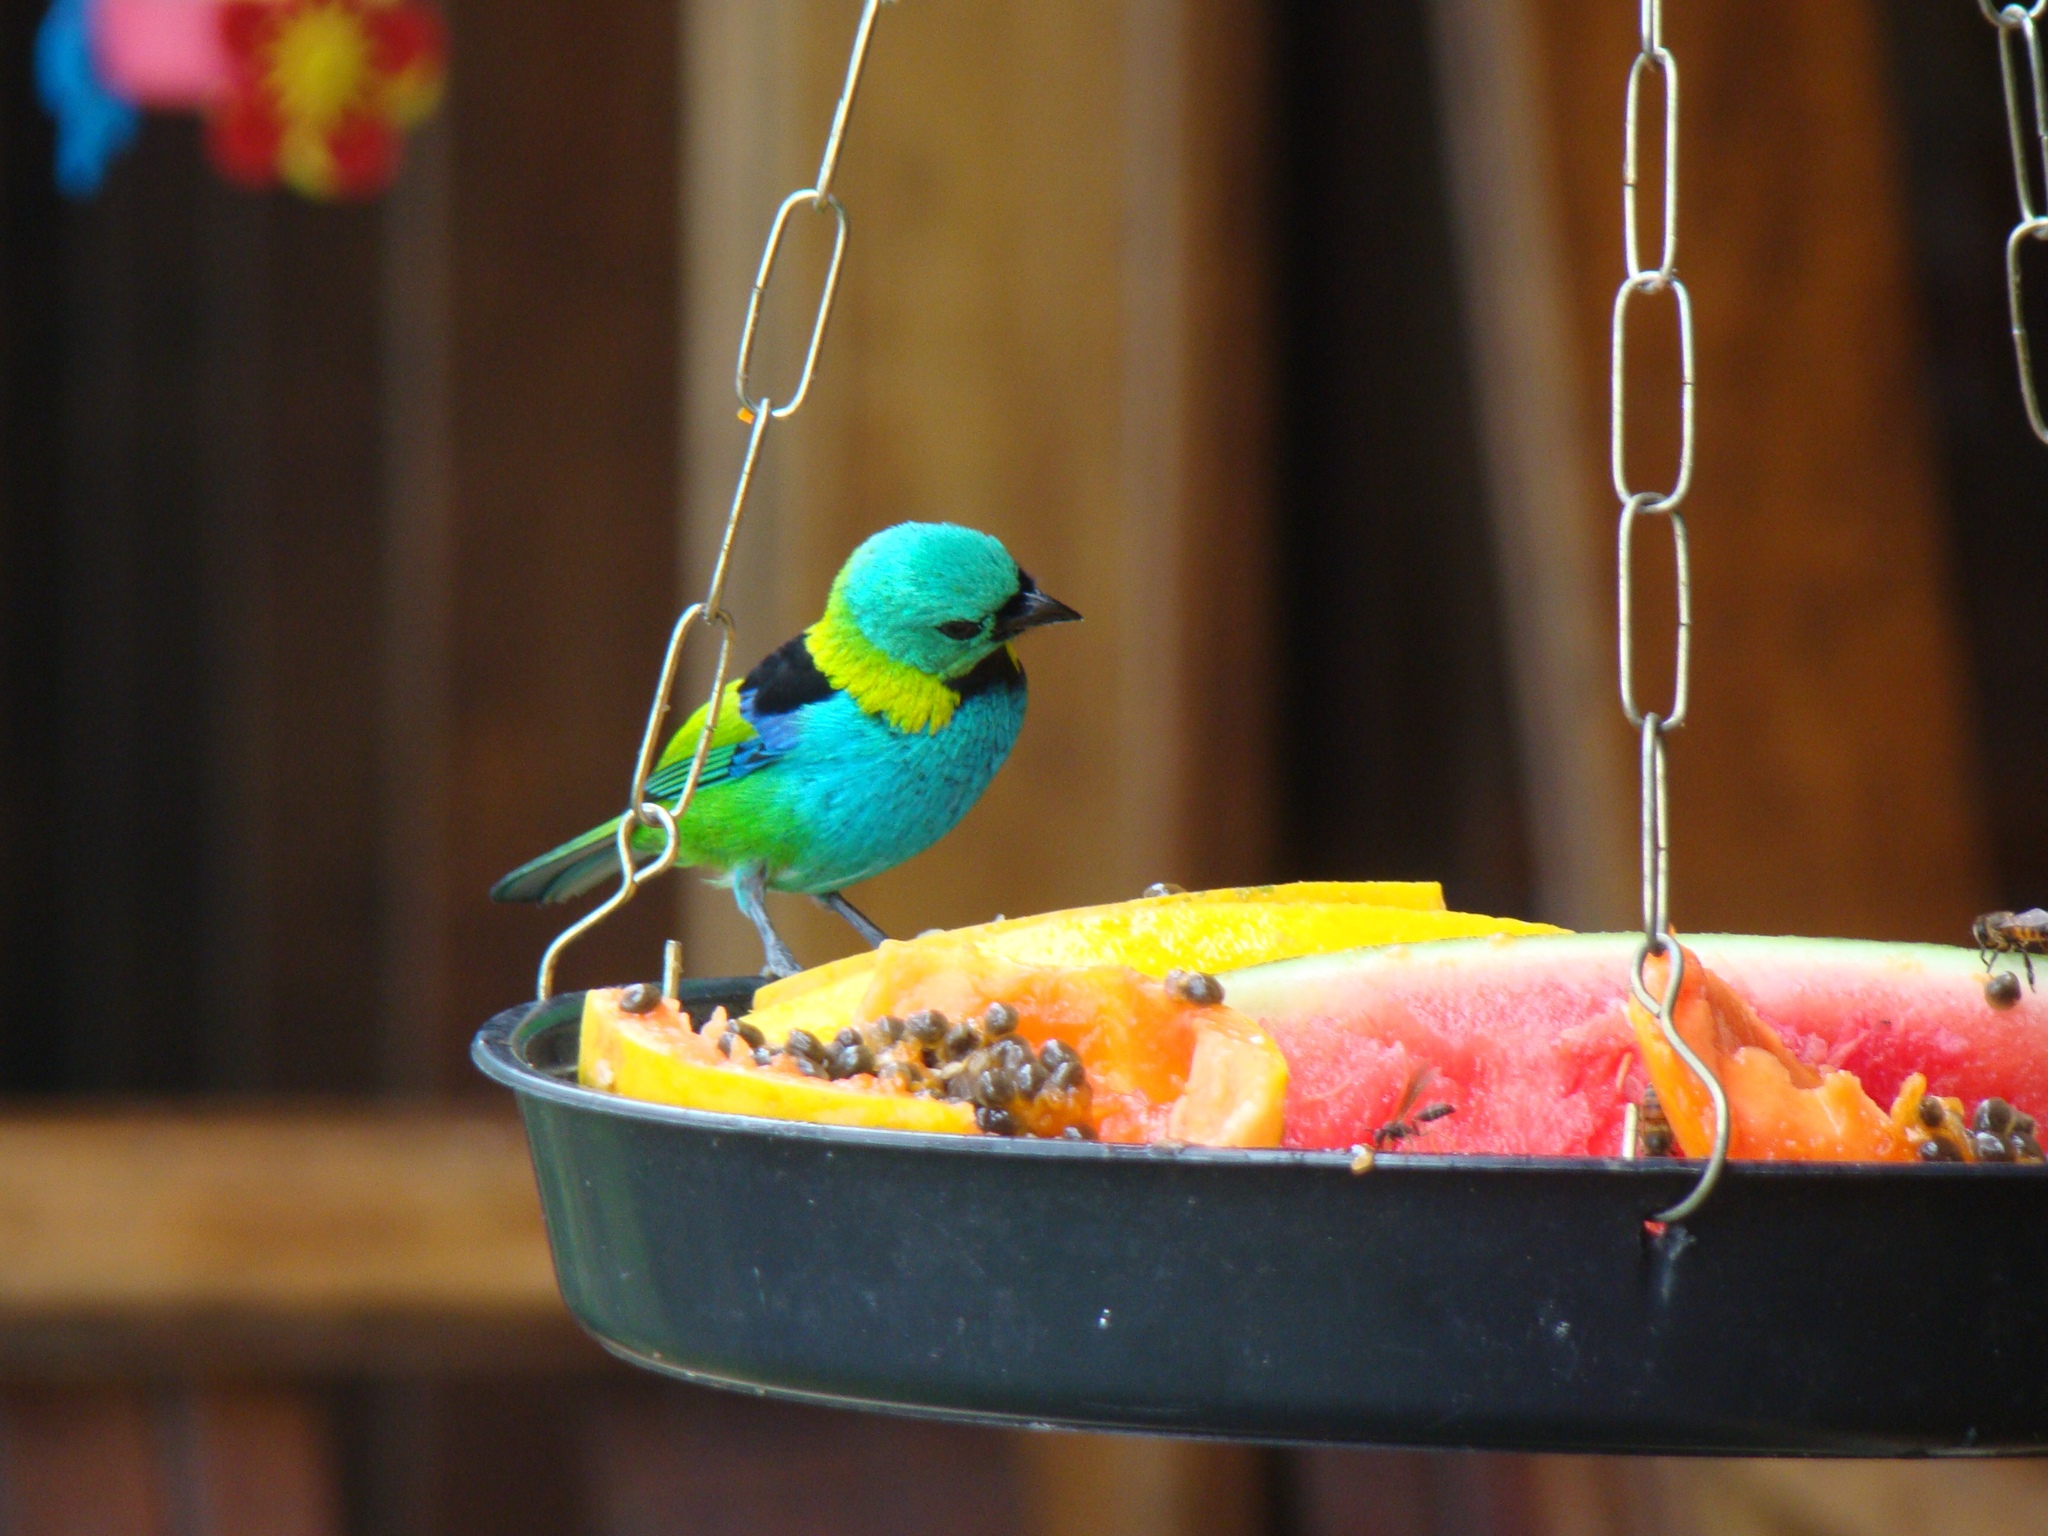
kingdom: Animalia
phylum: Chordata
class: Aves
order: Passeriformes
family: Thraupidae
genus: Tangara
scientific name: Tangara seledon
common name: Green-headed tanager
